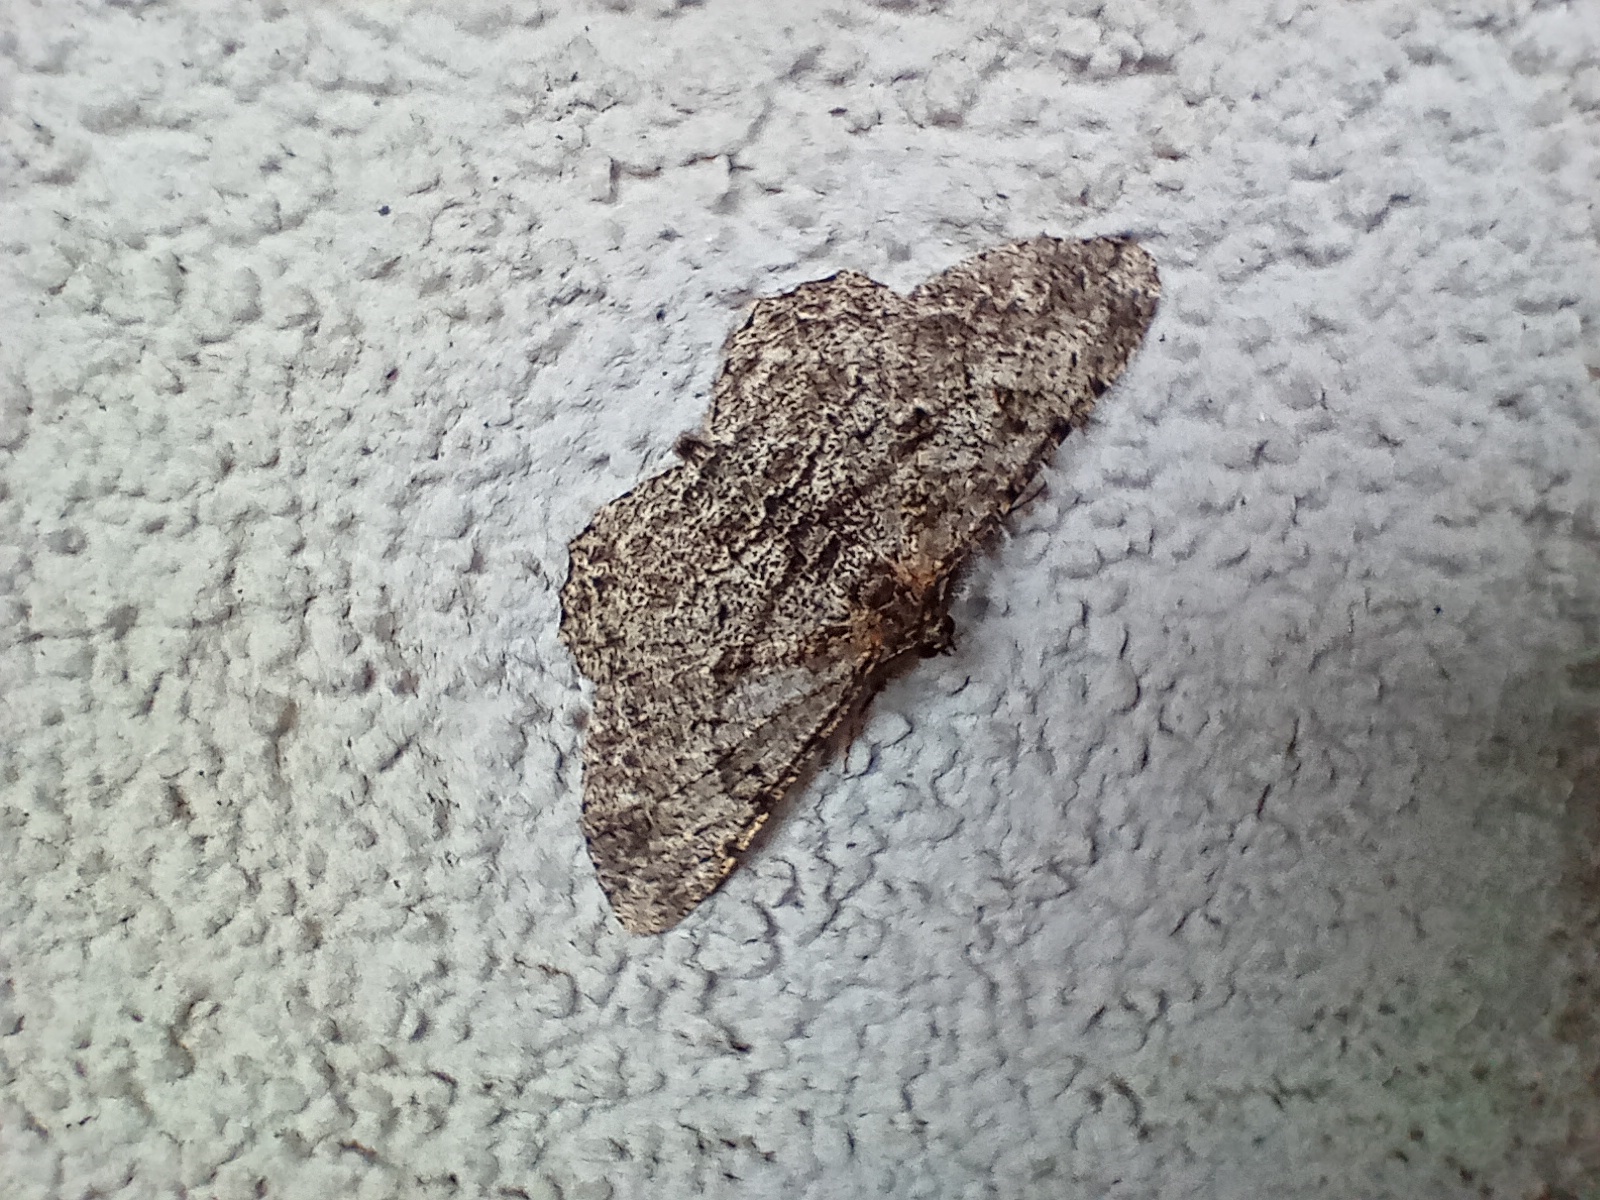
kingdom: Animalia
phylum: Arthropoda
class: Insecta
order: Lepidoptera
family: Geometridae
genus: Peribatodes
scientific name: Peribatodes rhomboidaria
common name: Willow beauty
